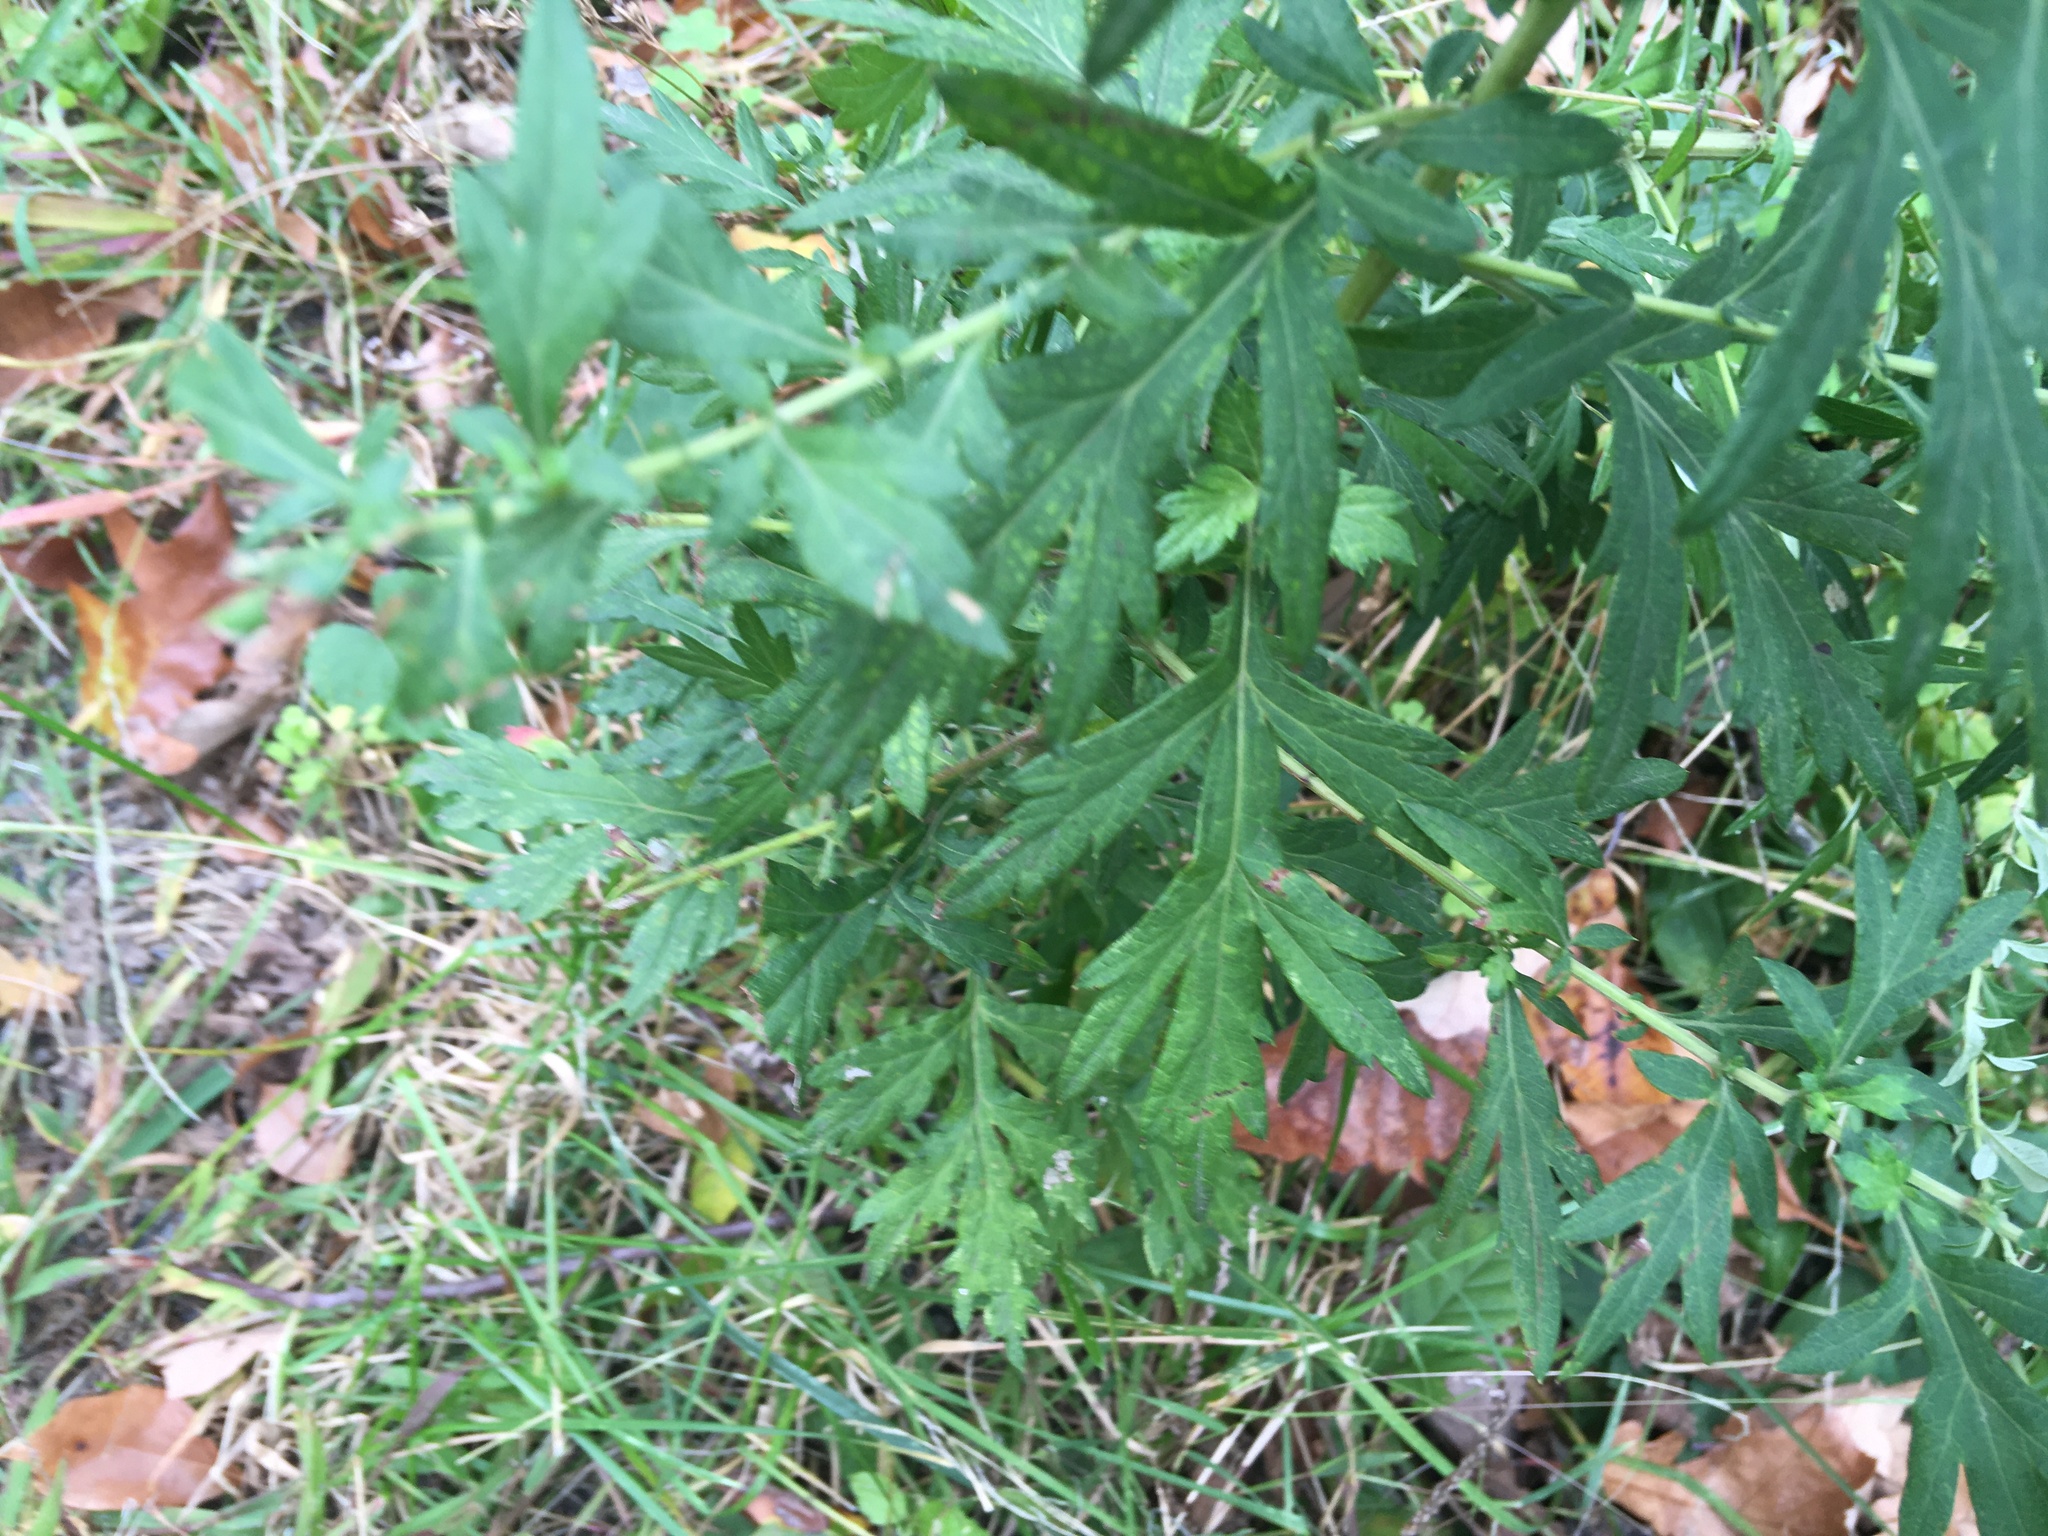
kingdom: Plantae
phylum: Tracheophyta
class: Magnoliopsida
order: Asterales
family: Asteraceae
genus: Artemisia
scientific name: Artemisia vulgaris
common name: Mugwort
